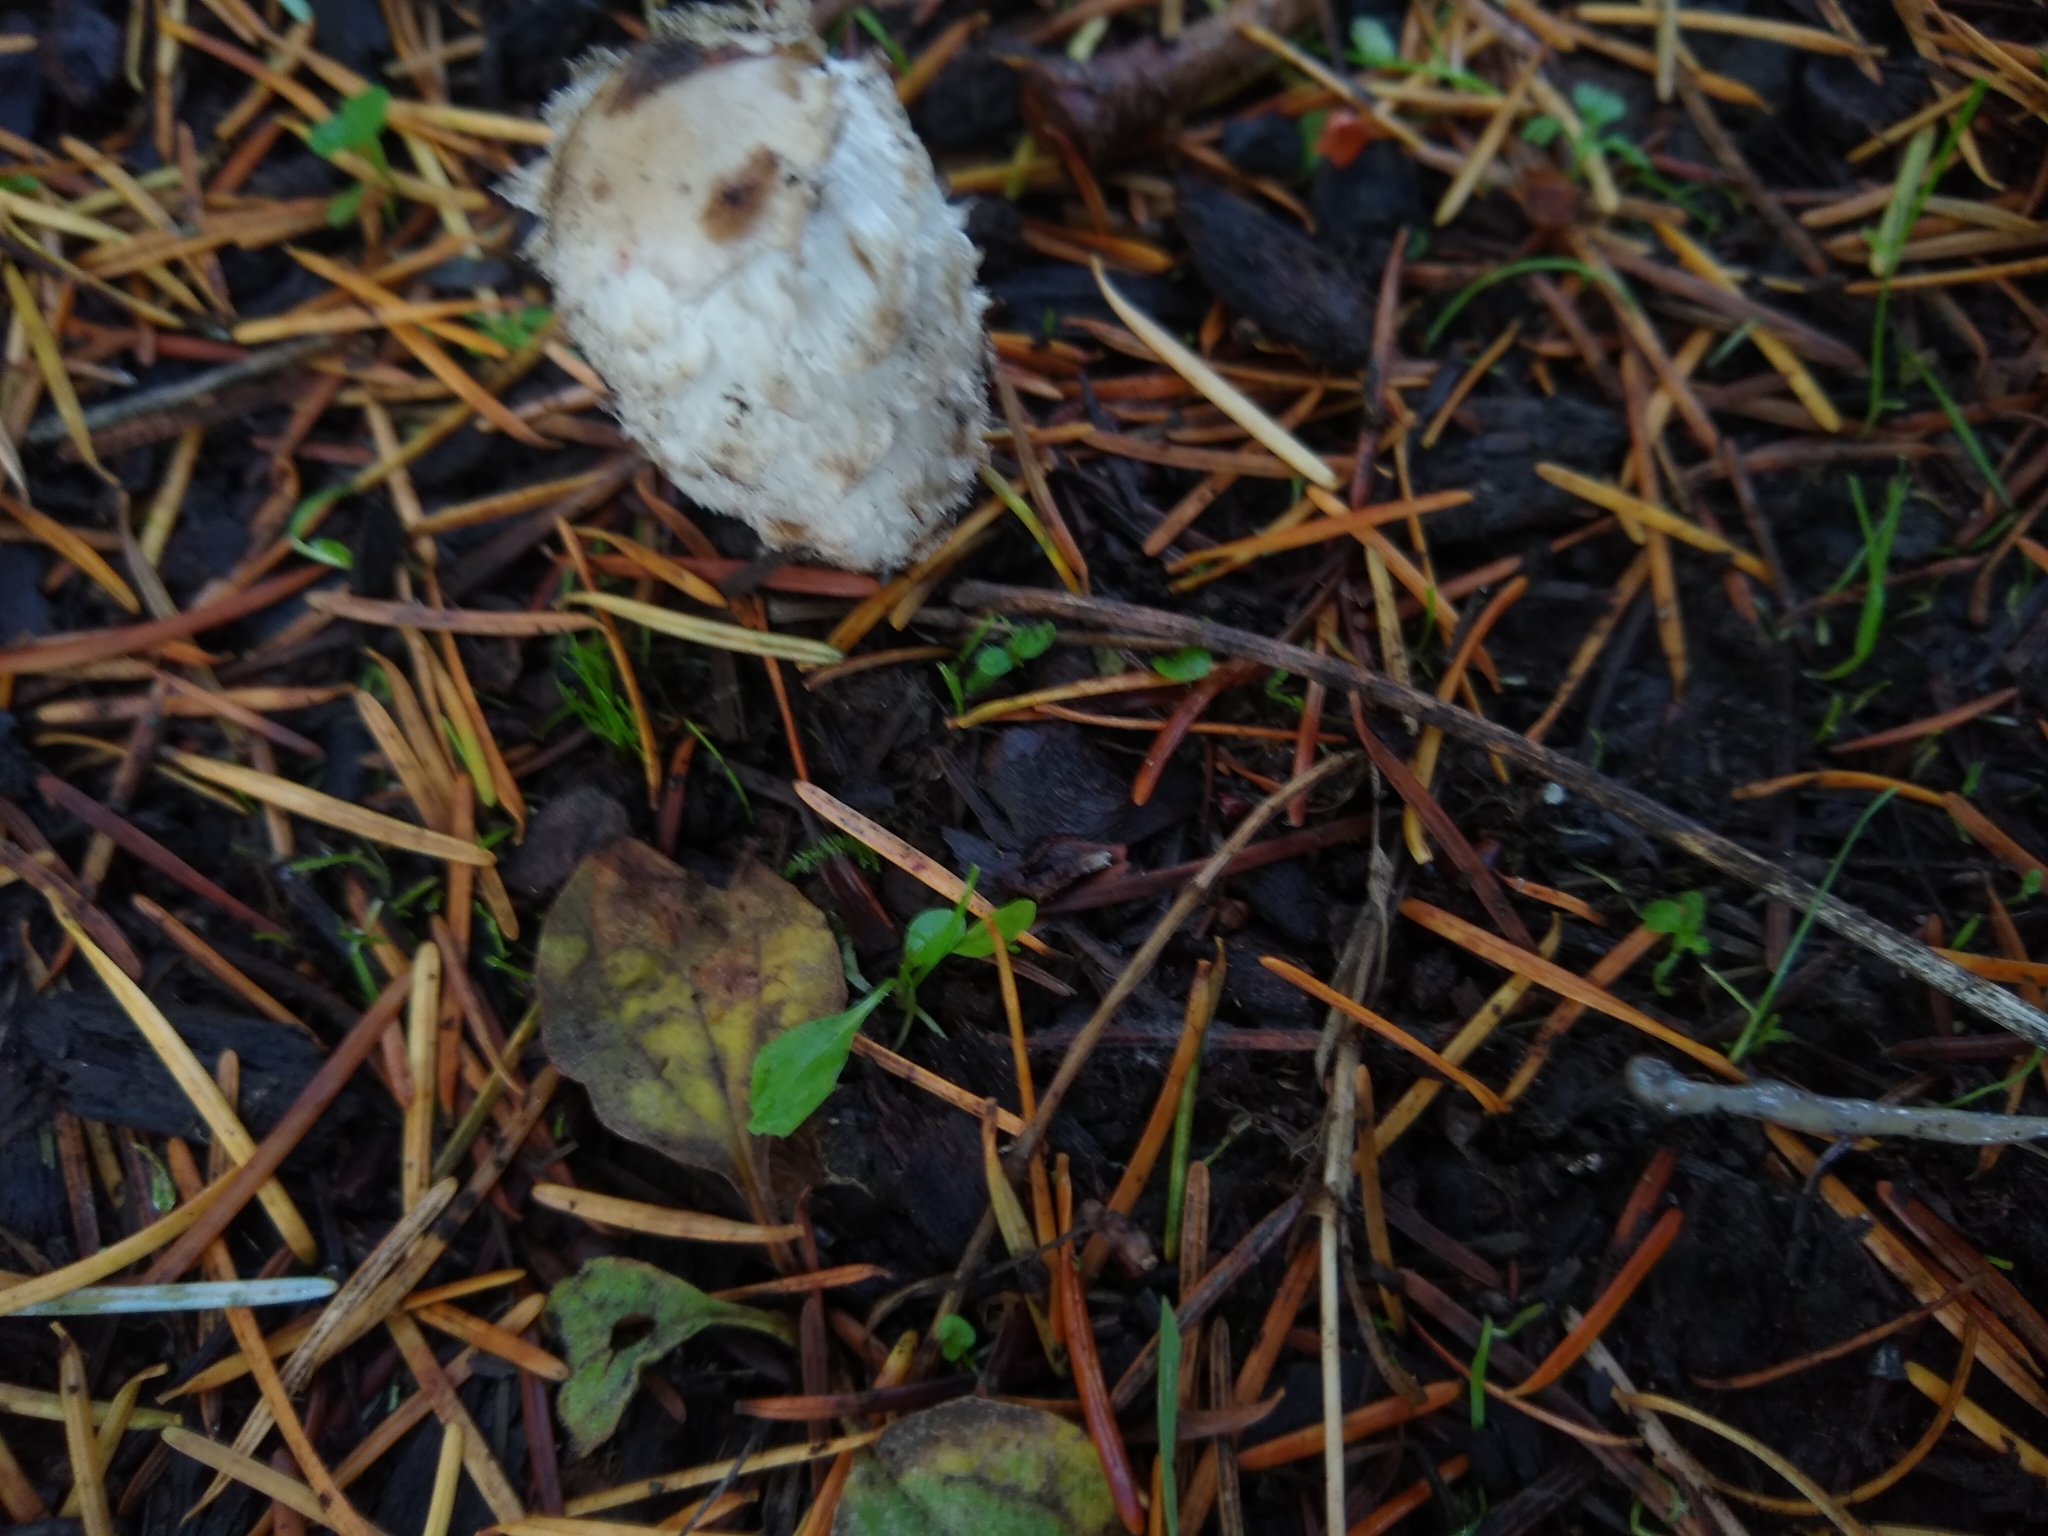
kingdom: Fungi
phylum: Basidiomycota
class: Agaricomycetes
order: Agaricales
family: Agaricaceae
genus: Coprinus
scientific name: Coprinus comatus
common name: Lawyer's wig
